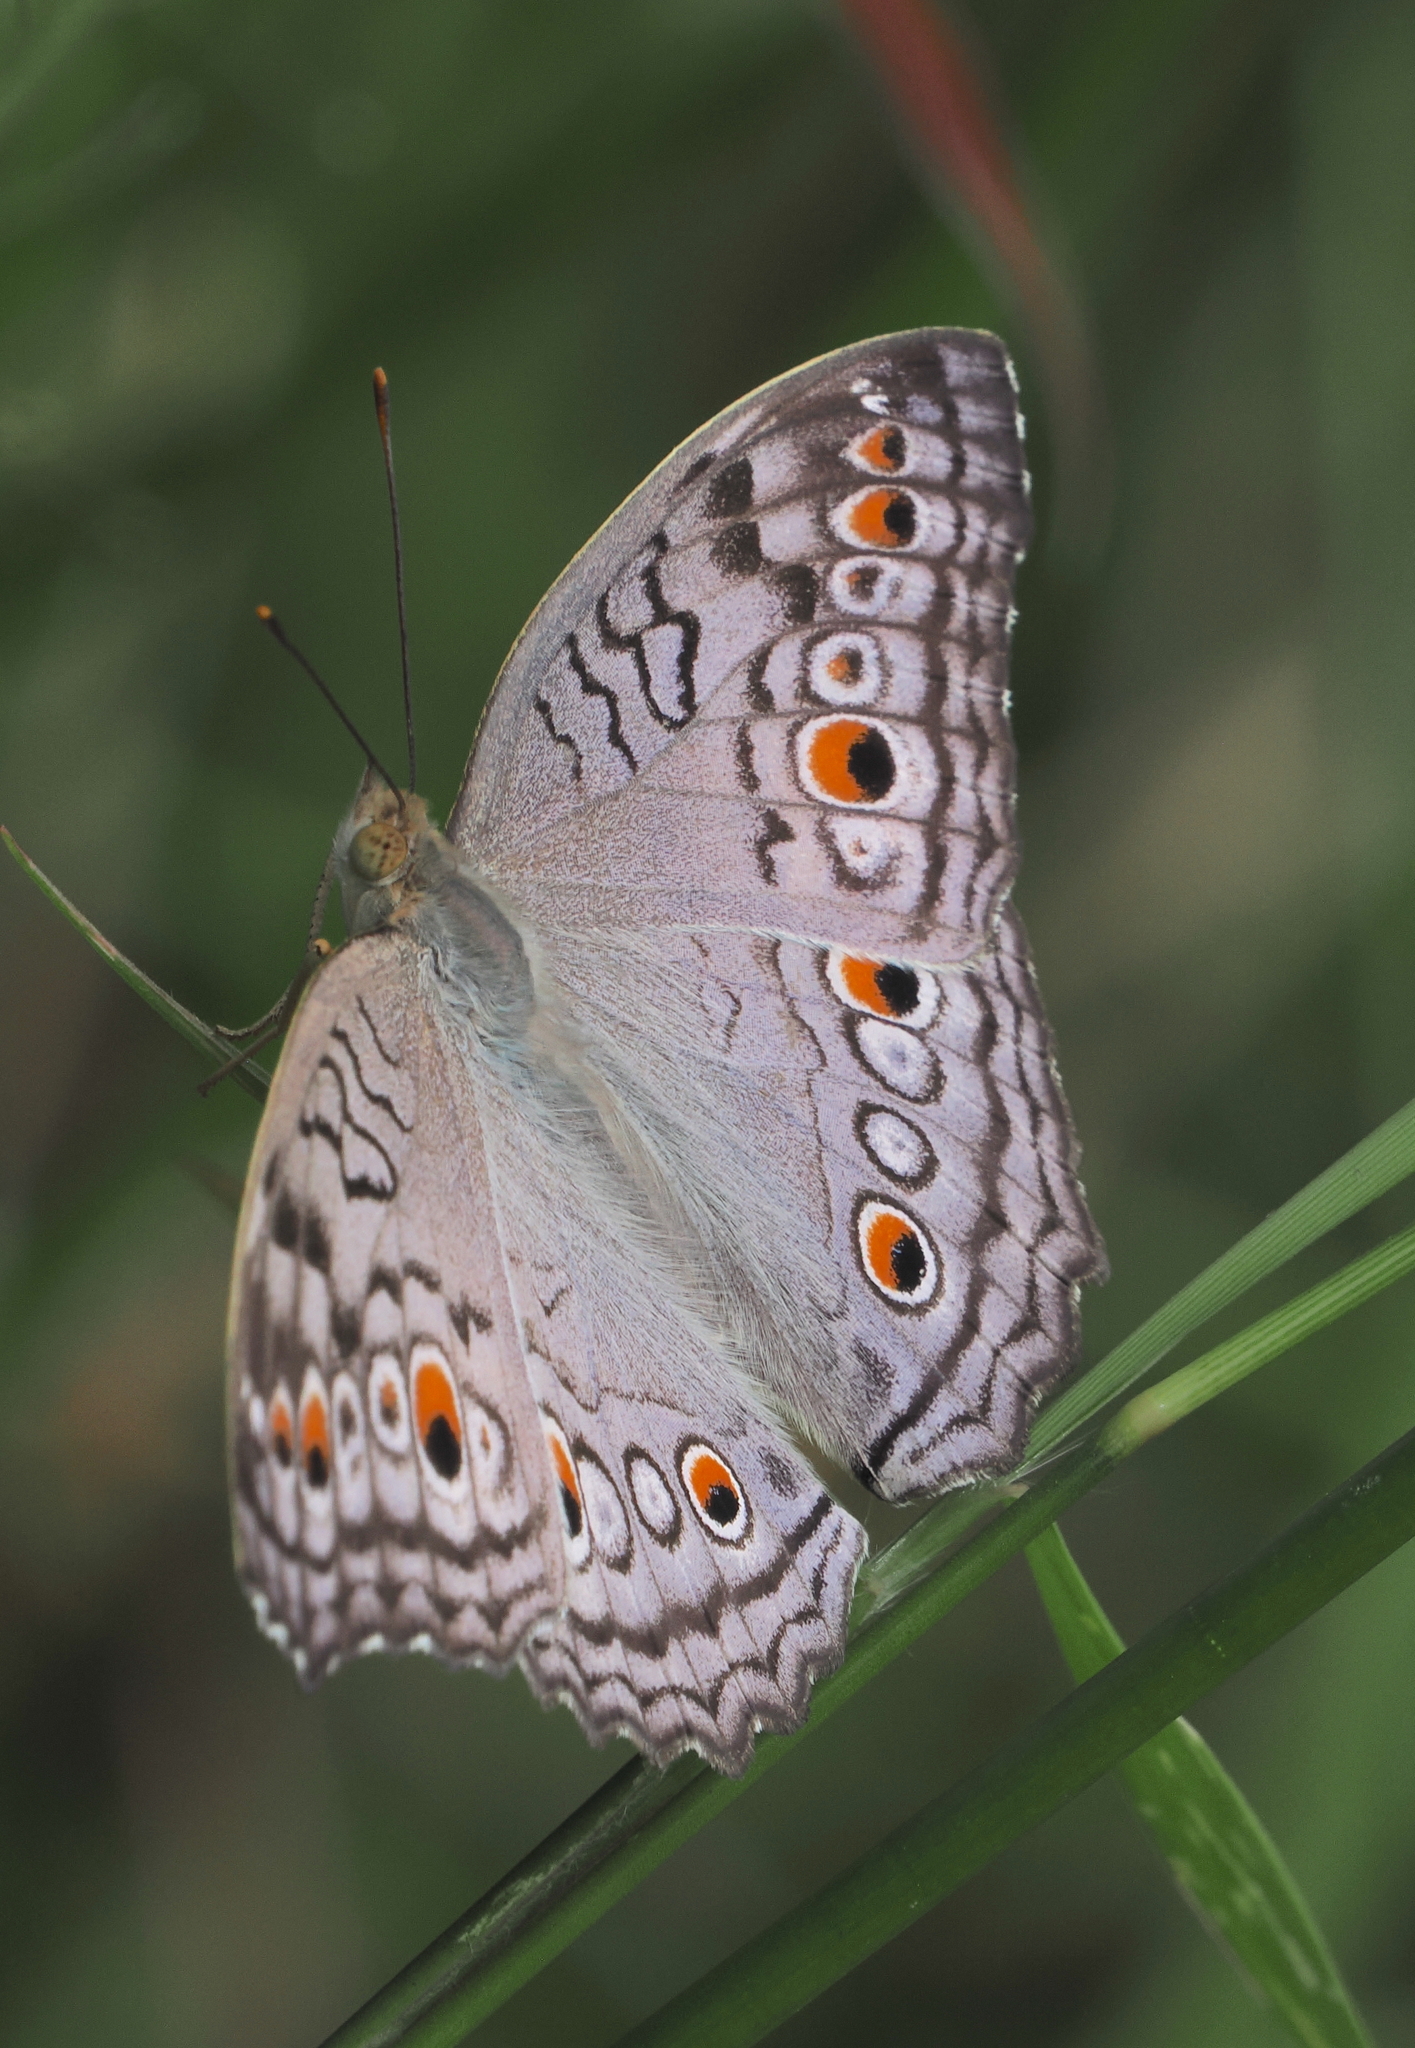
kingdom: Animalia
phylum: Arthropoda
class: Insecta
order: Lepidoptera
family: Nymphalidae
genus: Junonia
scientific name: Junonia atlites
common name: Grey pansy
